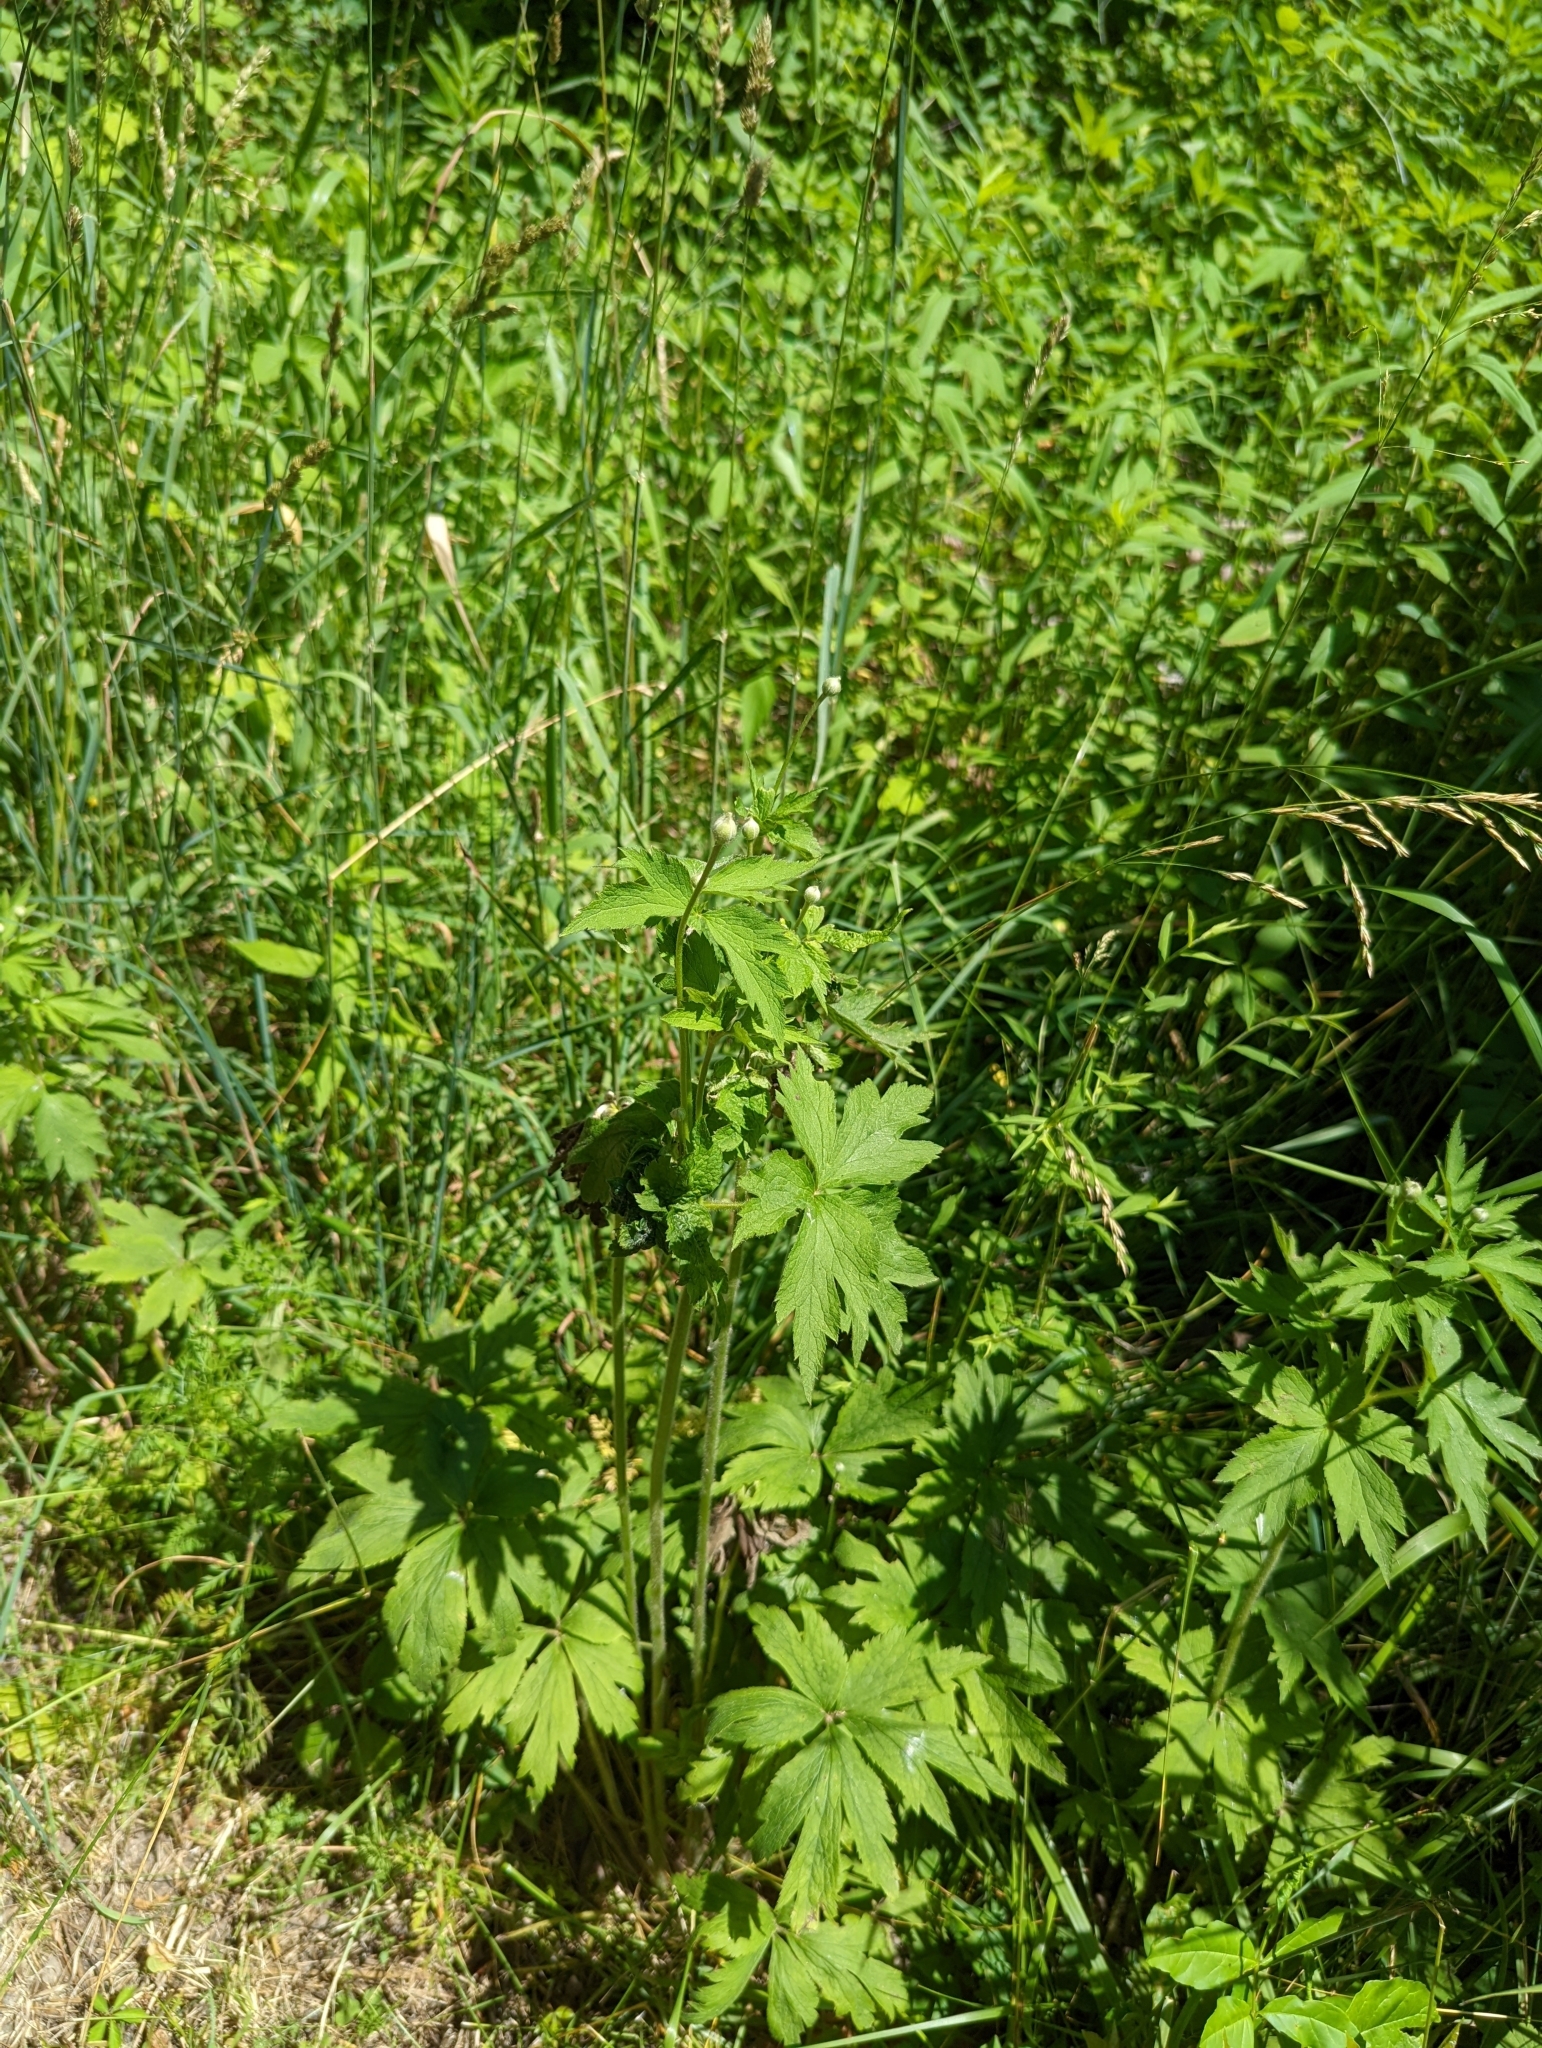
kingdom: Plantae
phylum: Tracheophyta
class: Magnoliopsida
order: Ranunculales
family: Ranunculaceae
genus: Anemone
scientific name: Anemone virginiana
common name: Tall anemone
